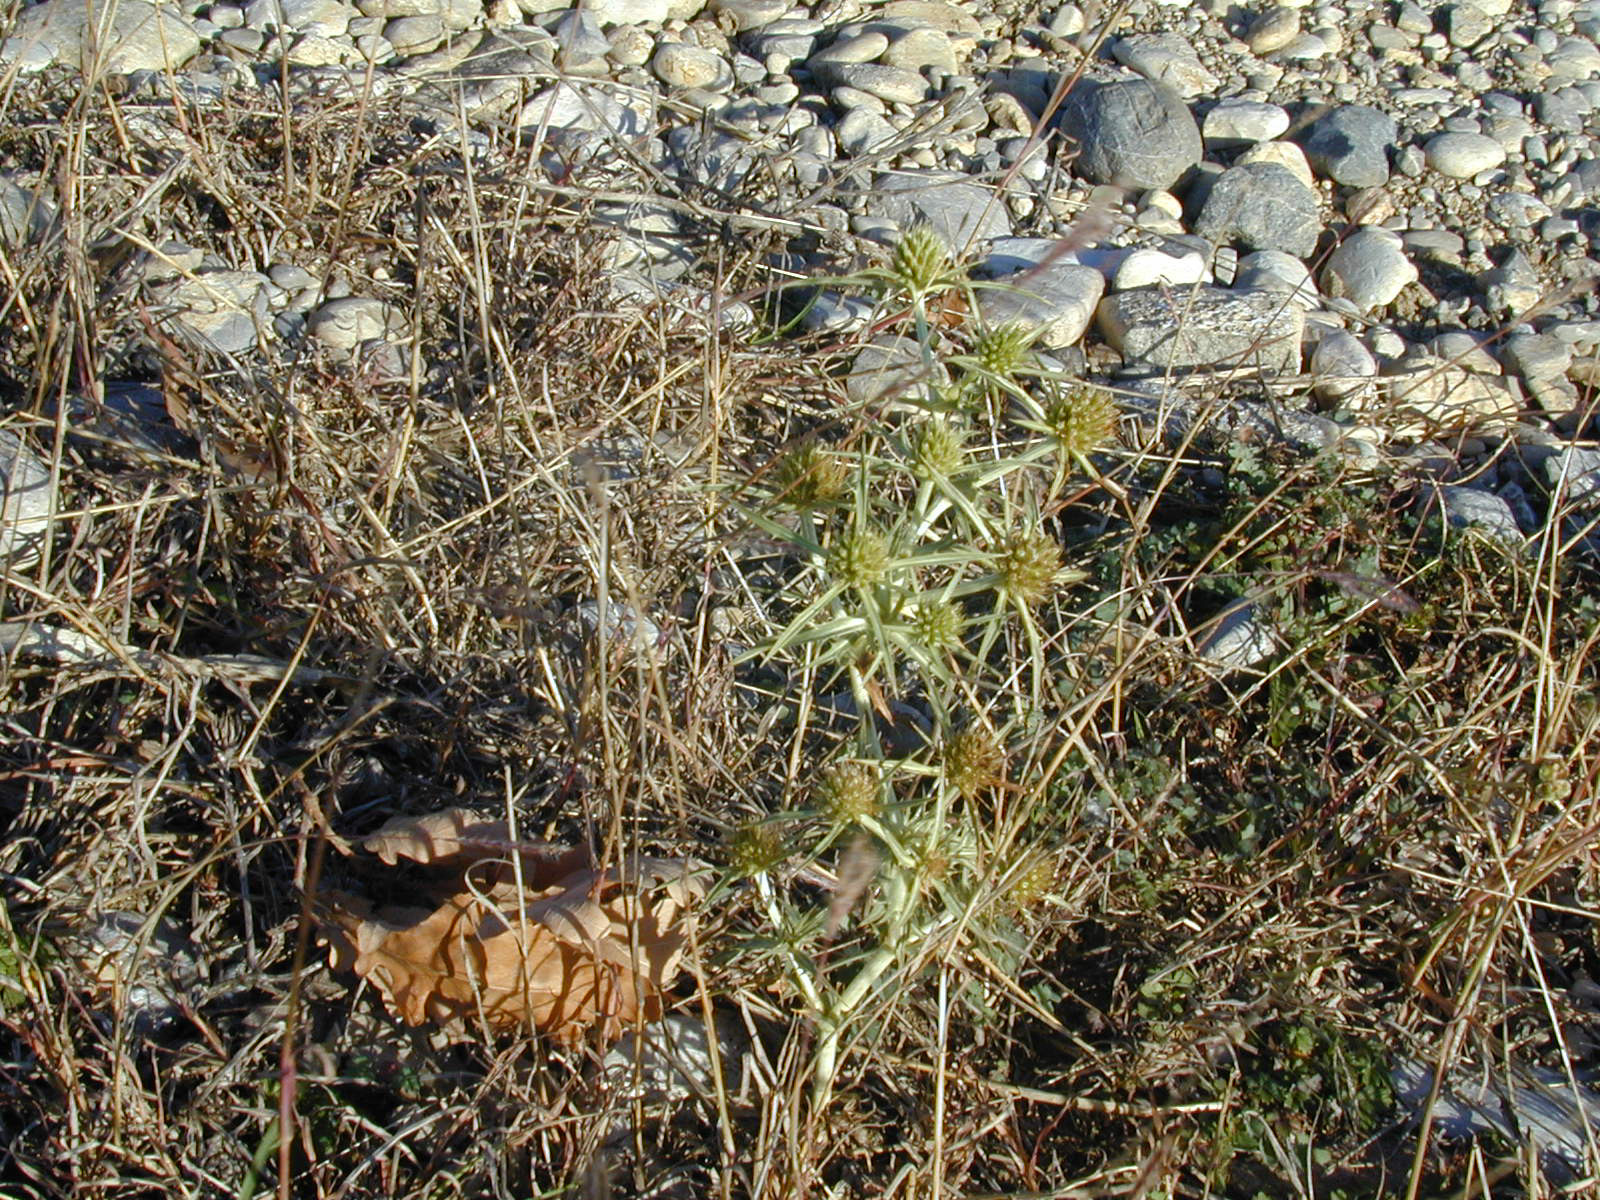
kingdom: Plantae
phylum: Tracheophyta
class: Magnoliopsida
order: Apiales
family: Apiaceae
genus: Eryngium
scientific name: Eryngium campestre
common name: Field eryngo
